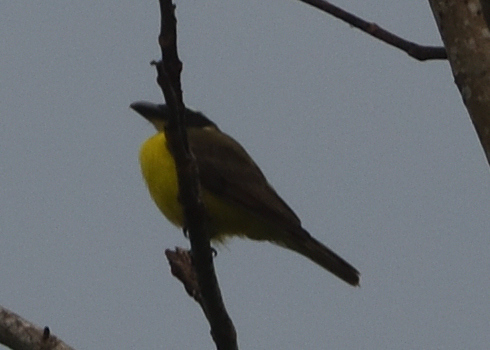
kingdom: Animalia
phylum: Chordata
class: Aves
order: Passeriformes
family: Tyrannidae
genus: Megarynchus
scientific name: Megarynchus pitangua
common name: Boat-billed flycatcher
